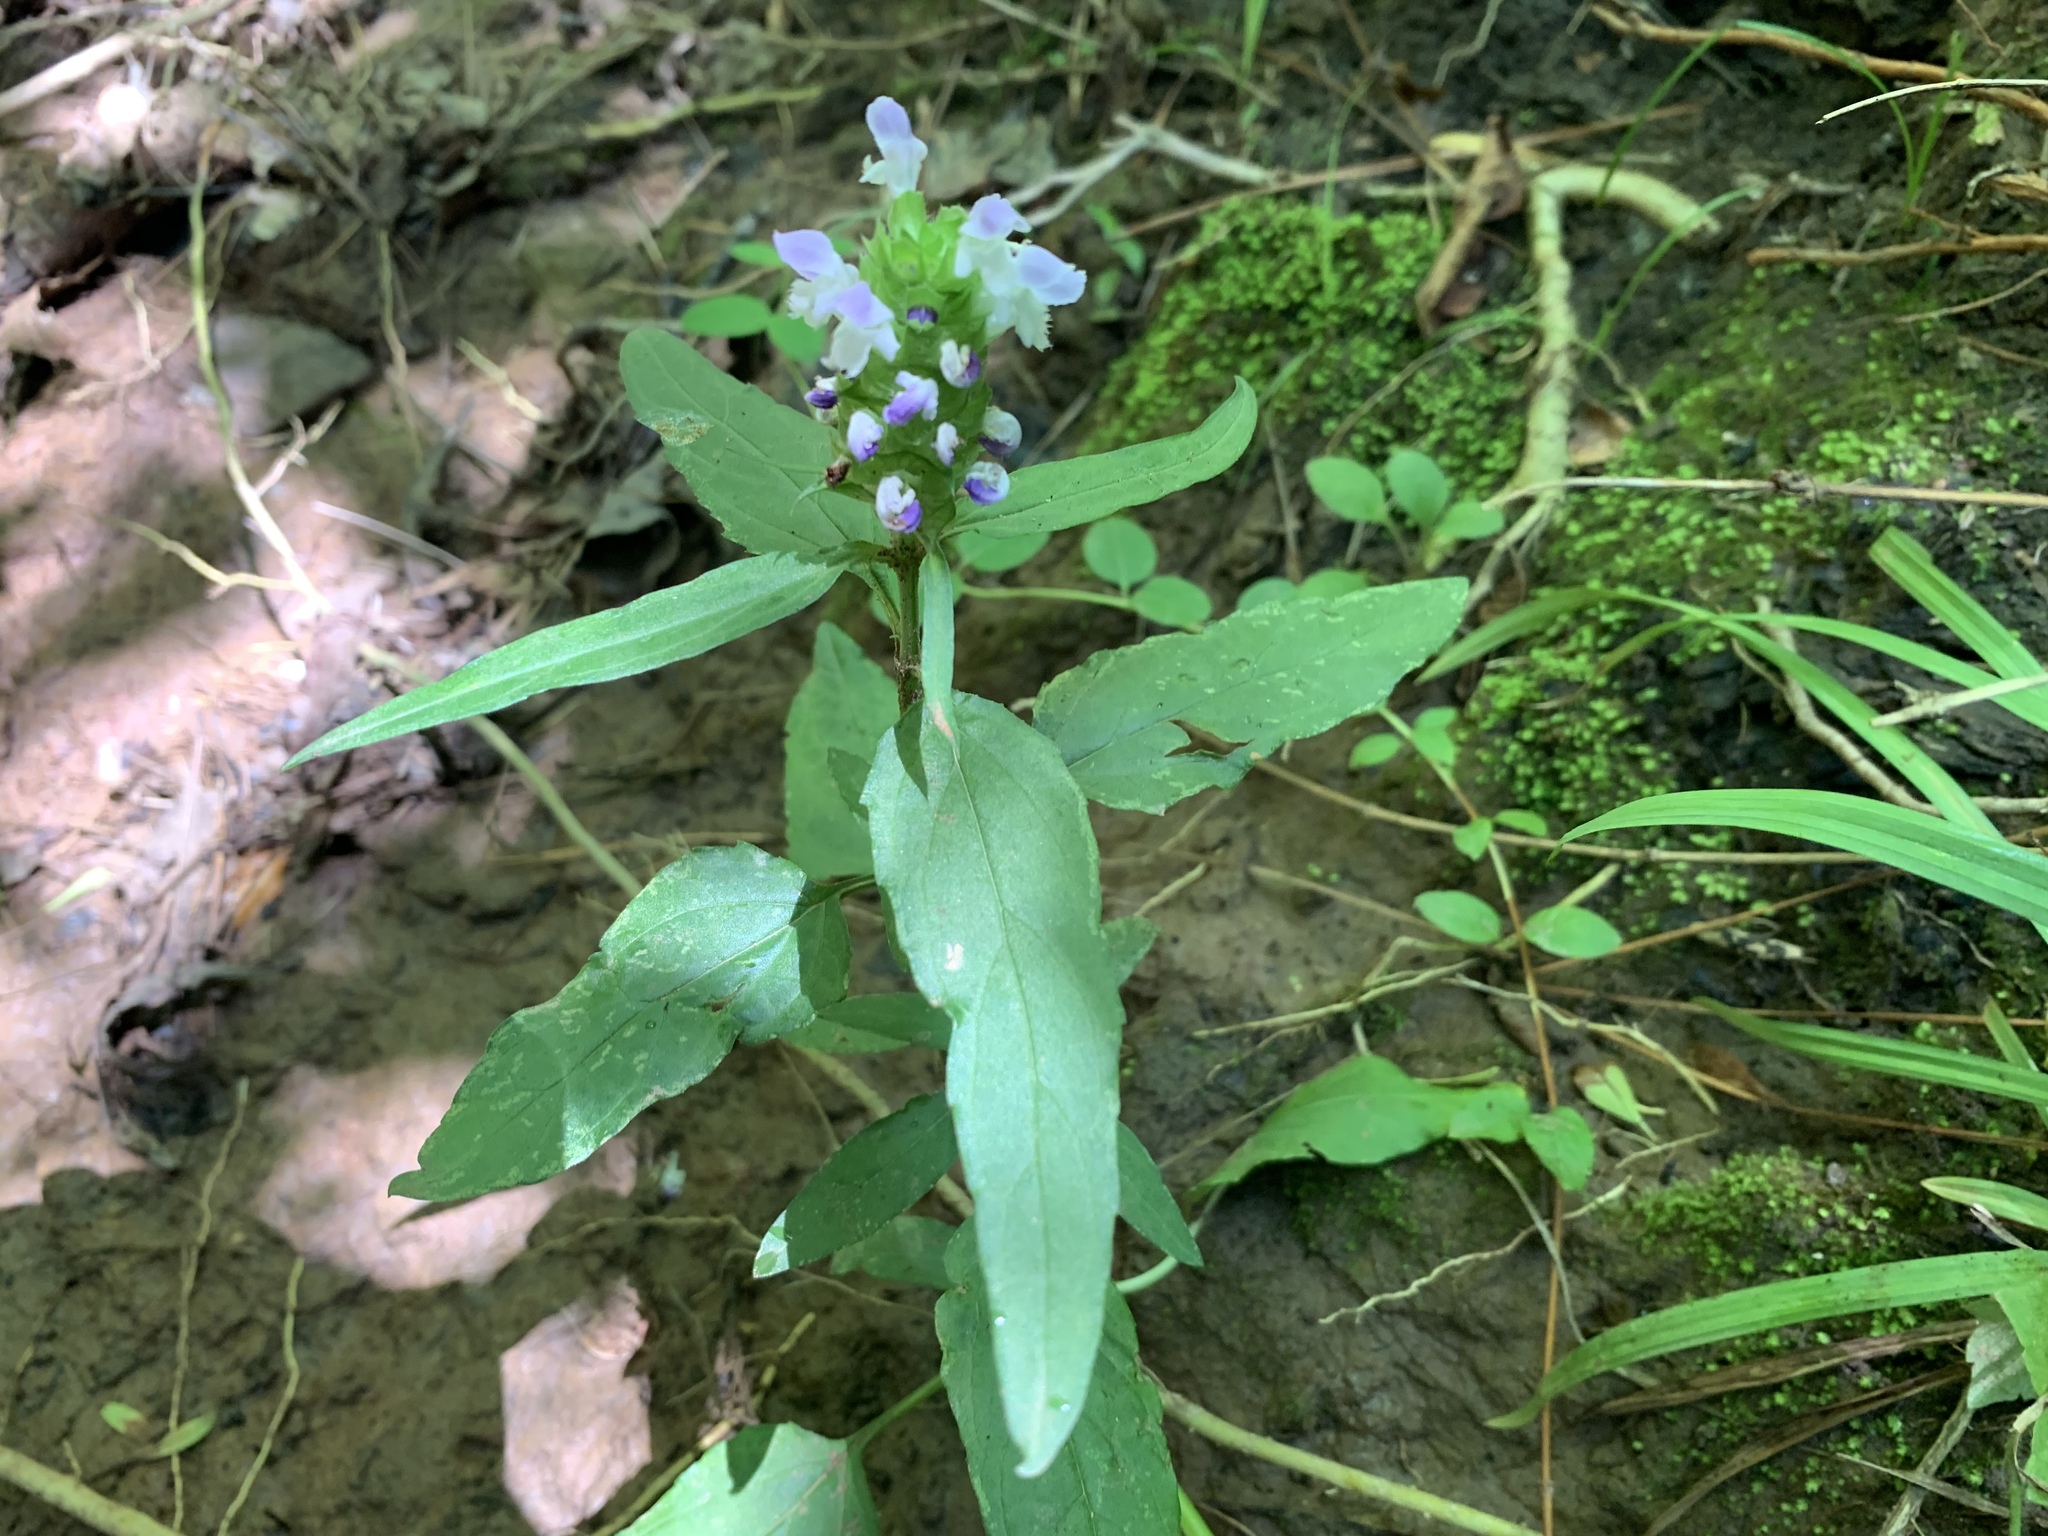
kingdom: Plantae
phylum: Tracheophyta
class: Magnoliopsida
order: Lamiales
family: Lamiaceae
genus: Prunella
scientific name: Prunella vulgaris
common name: Heal-all
